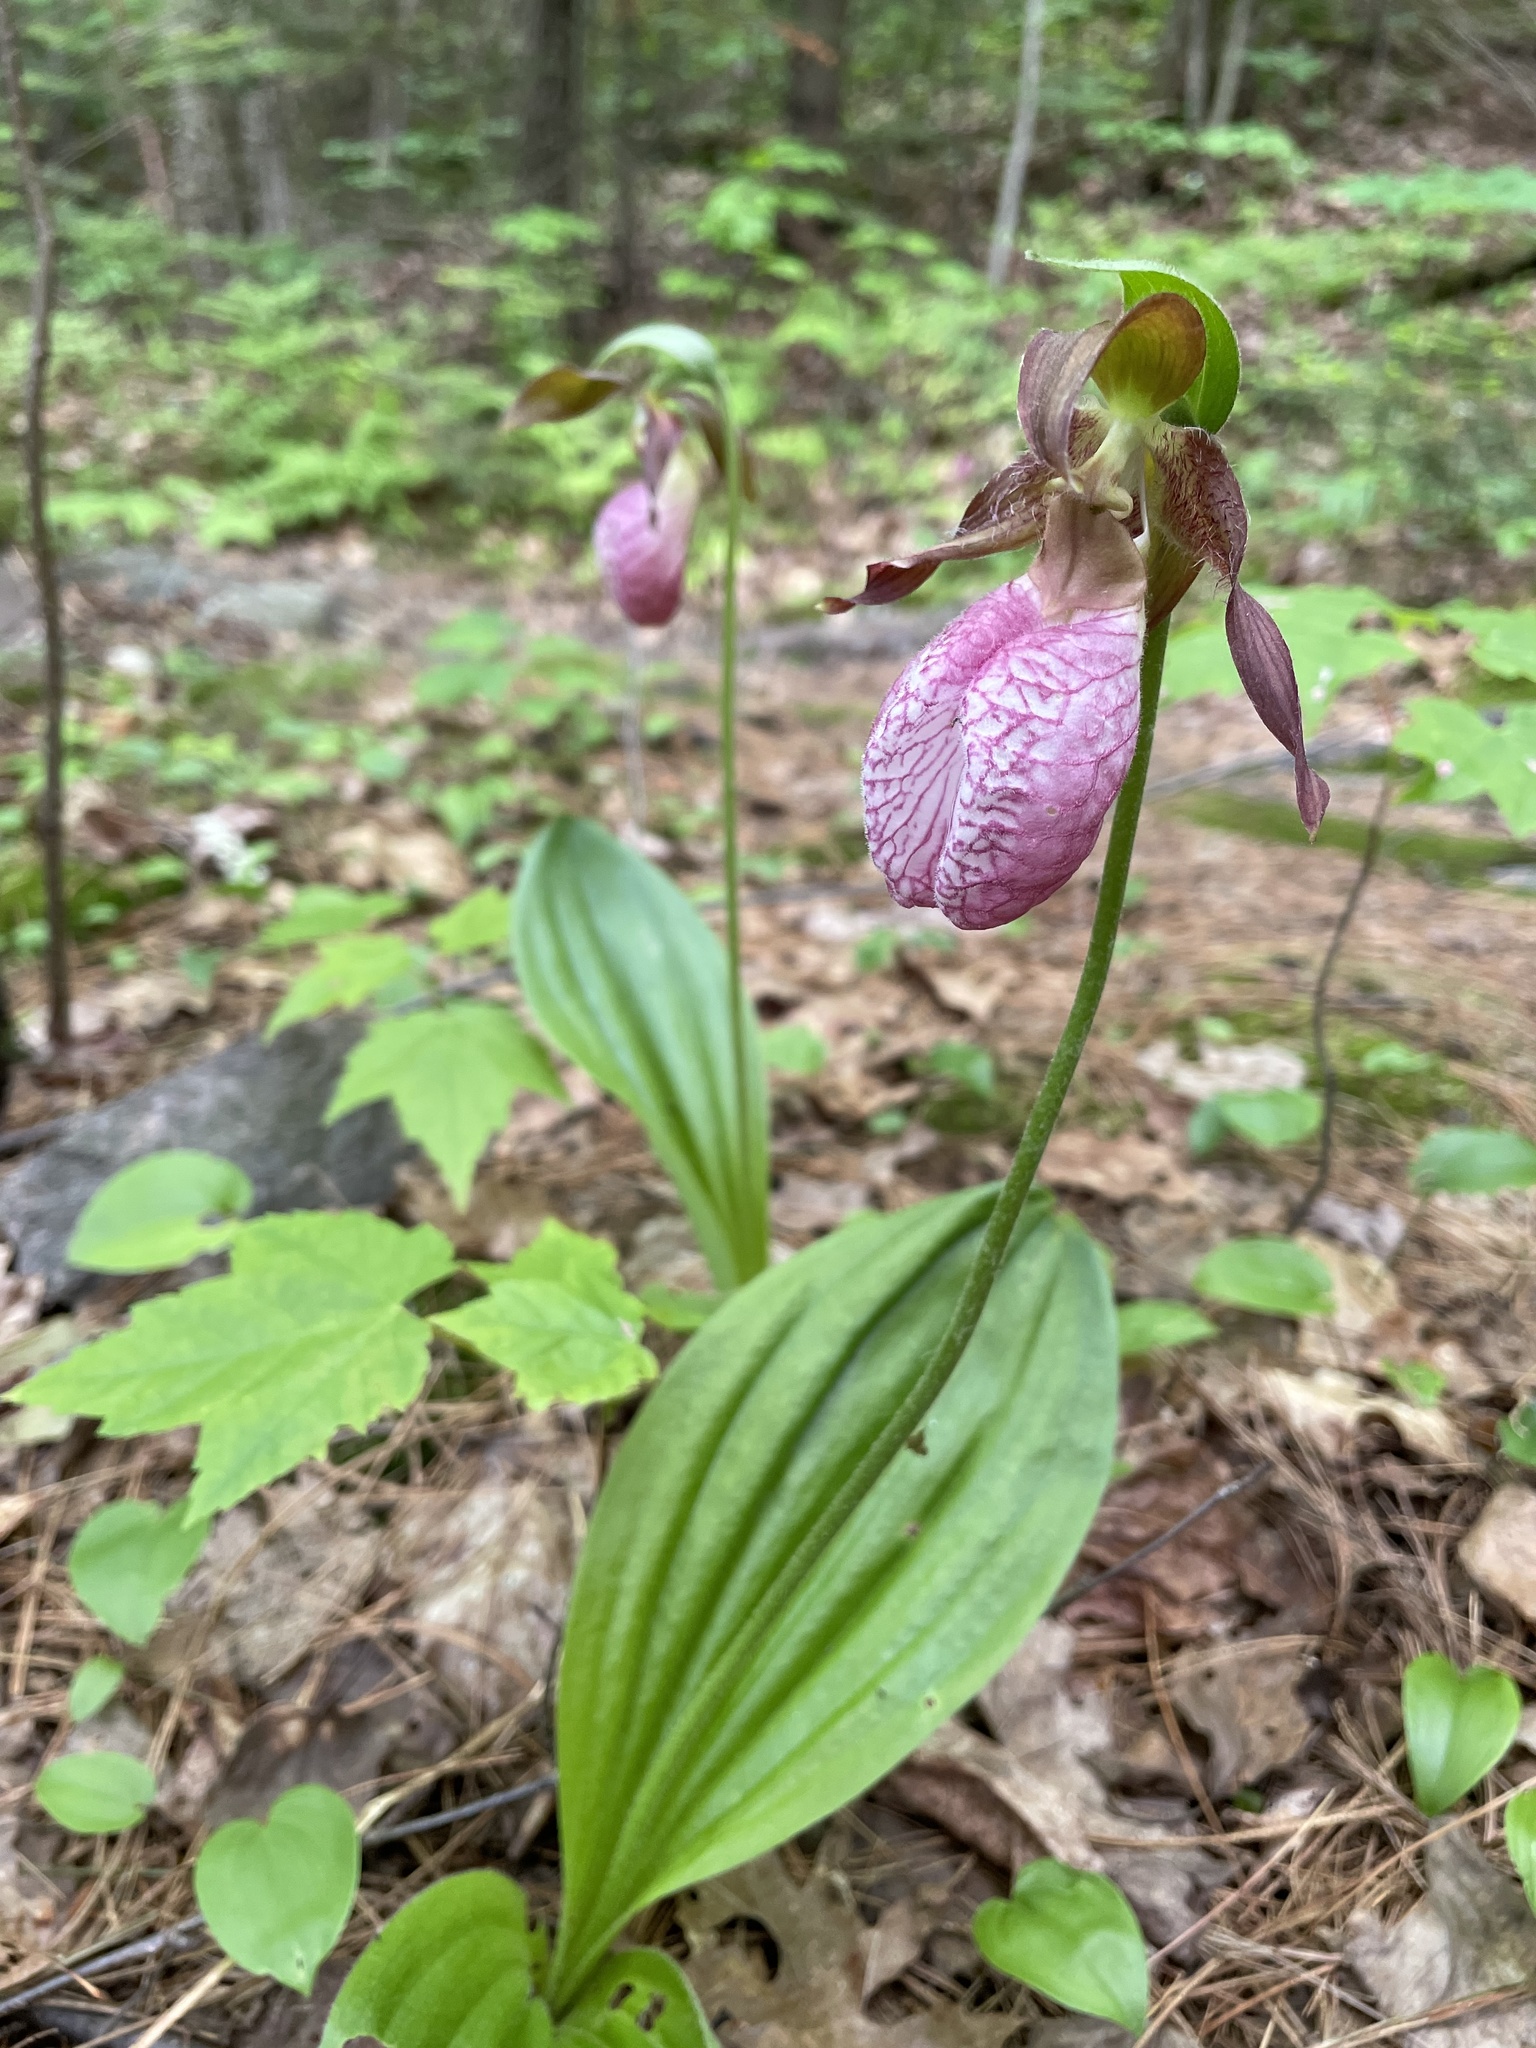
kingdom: Plantae
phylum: Tracheophyta
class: Liliopsida
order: Asparagales
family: Orchidaceae
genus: Cypripedium
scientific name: Cypripedium acaule
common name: Pink lady's-slipper
